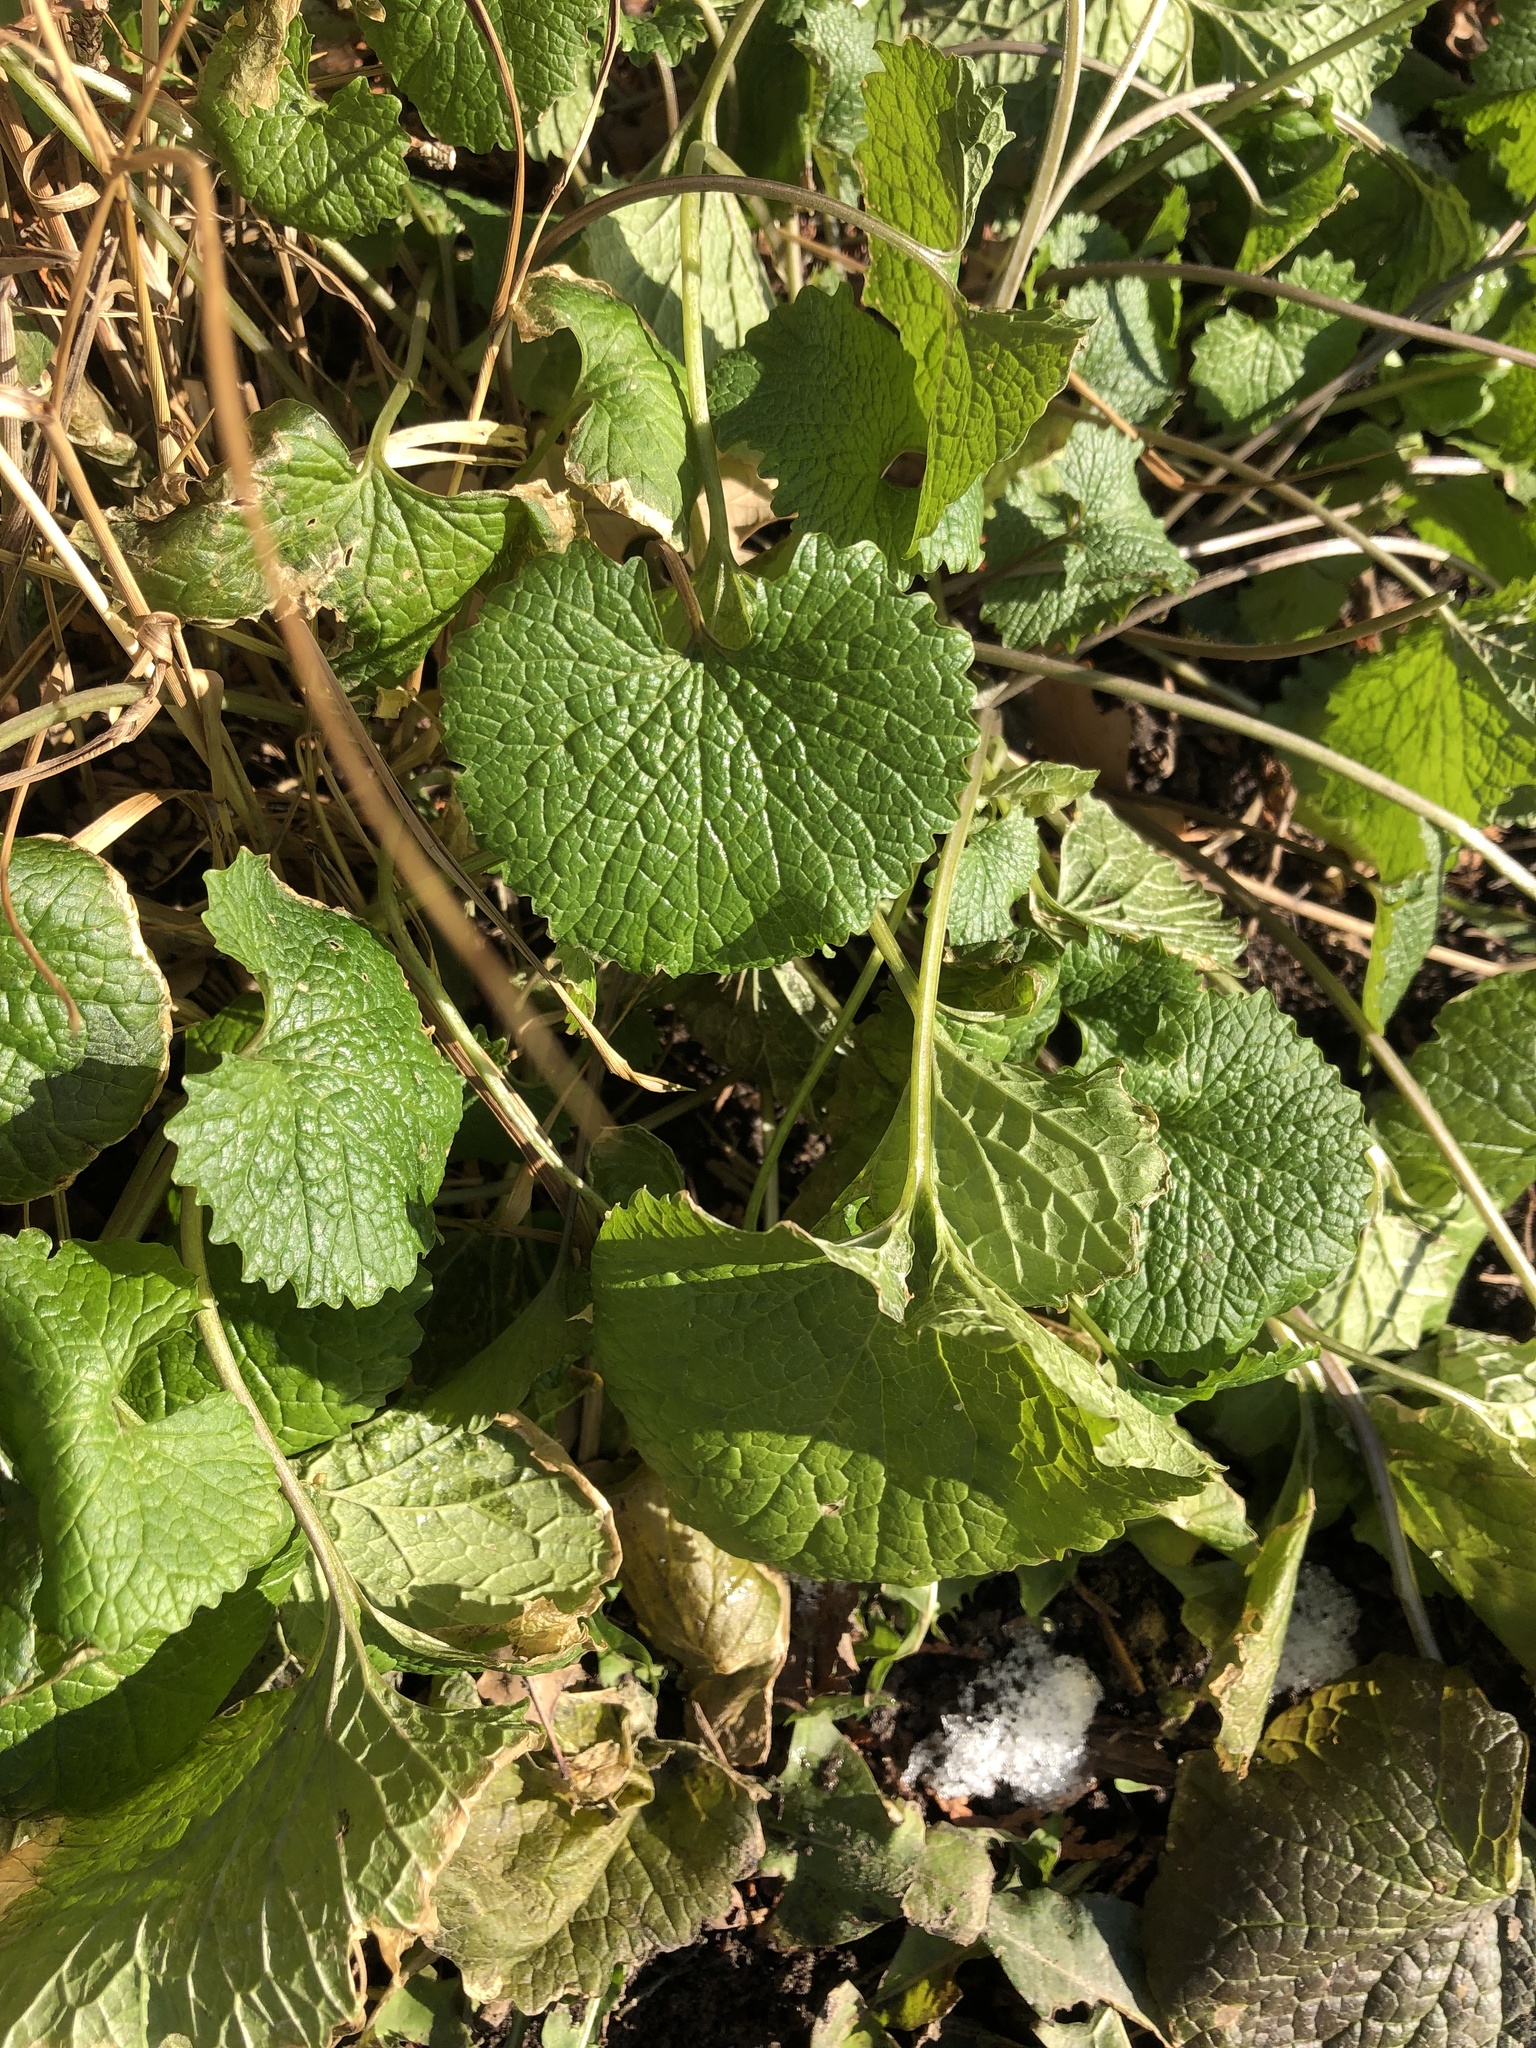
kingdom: Plantae
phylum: Tracheophyta
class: Magnoliopsida
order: Brassicales
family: Brassicaceae
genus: Alliaria
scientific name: Alliaria petiolata
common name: Garlic mustard
